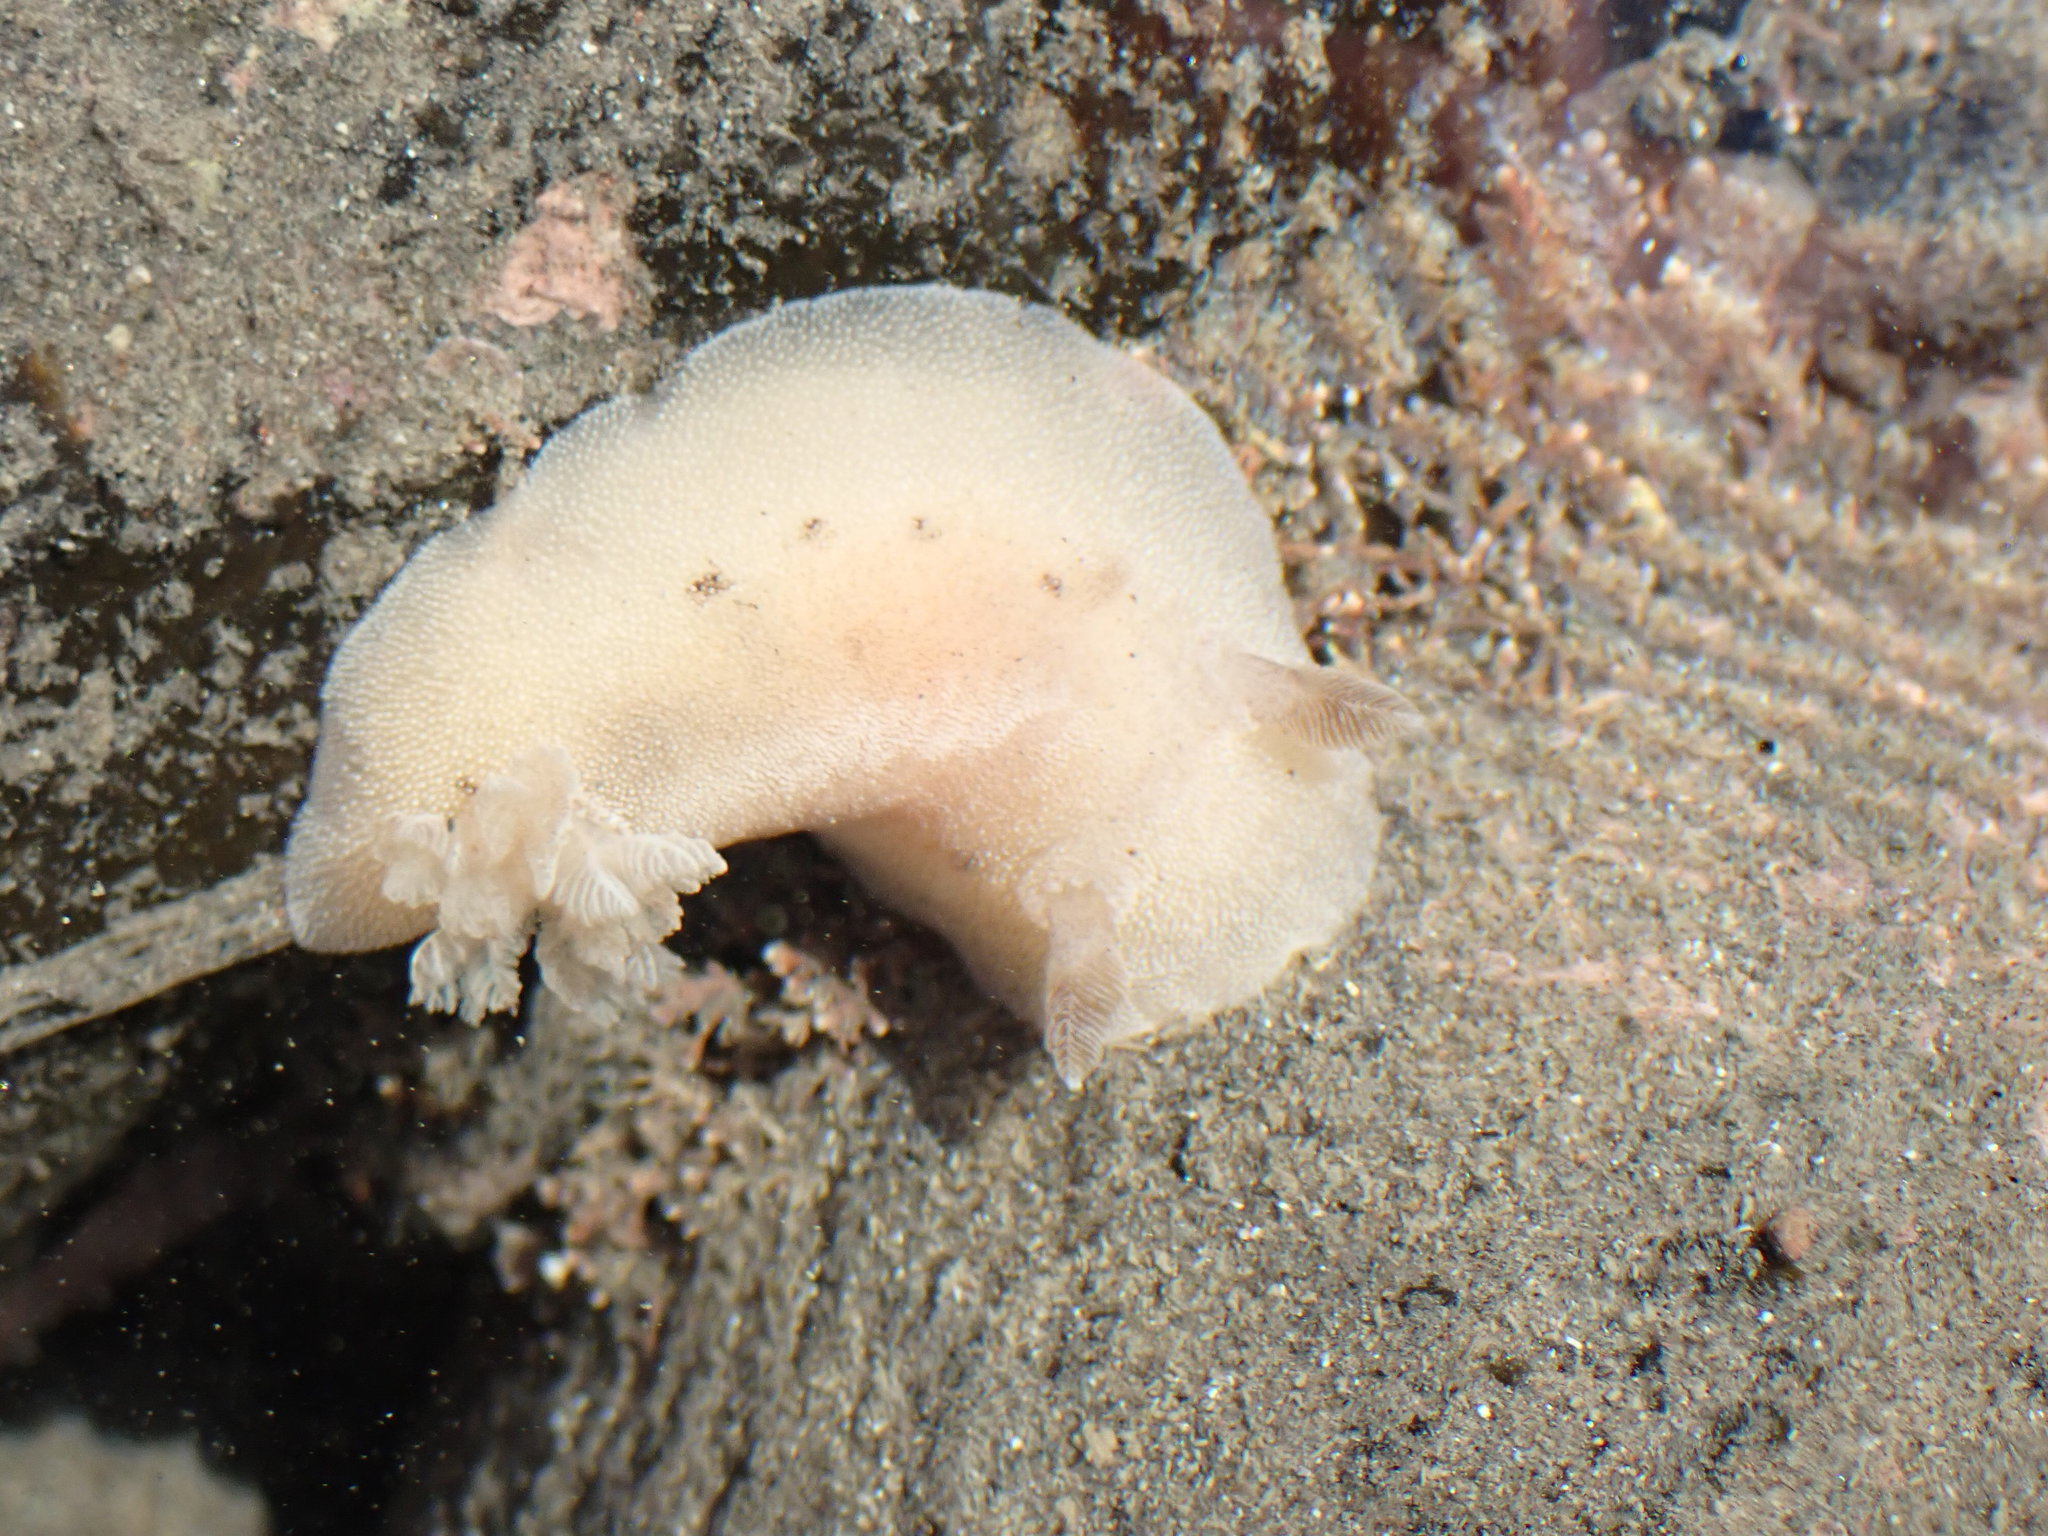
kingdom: Animalia
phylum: Mollusca
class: Gastropoda
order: Nudibranchia
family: Discodorididae
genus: Alloiodoris
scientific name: Alloiodoris lanuginata
